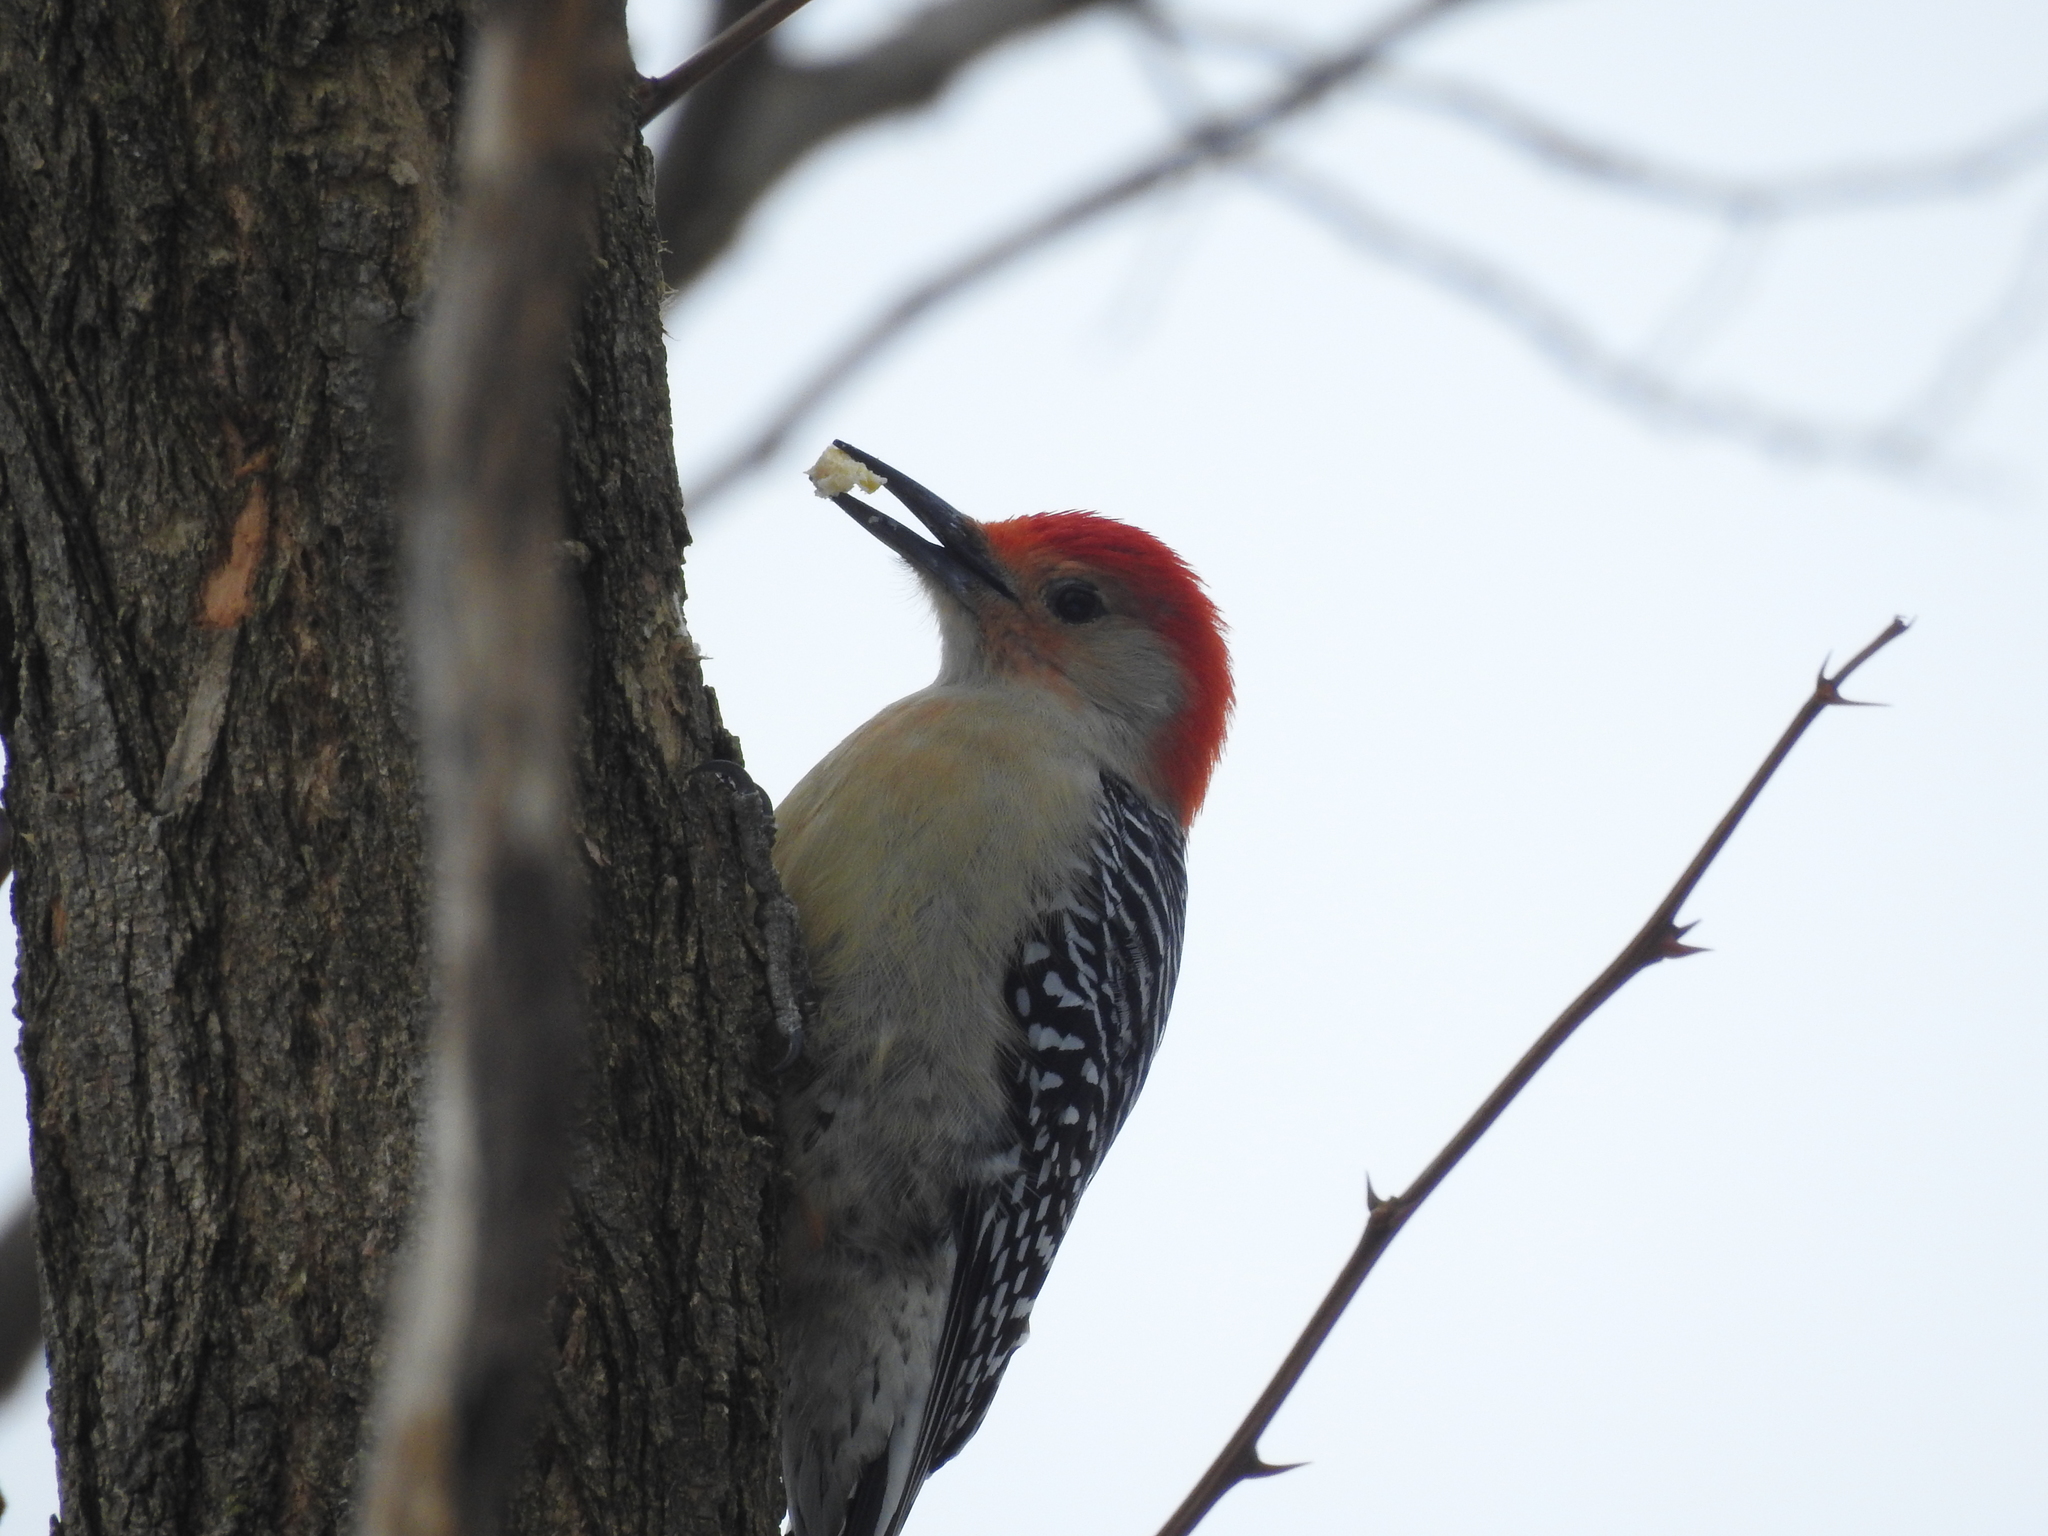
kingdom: Animalia
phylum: Chordata
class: Aves
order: Piciformes
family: Picidae
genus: Melanerpes
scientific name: Melanerpes carolinus
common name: Red-bellied woodpecker
